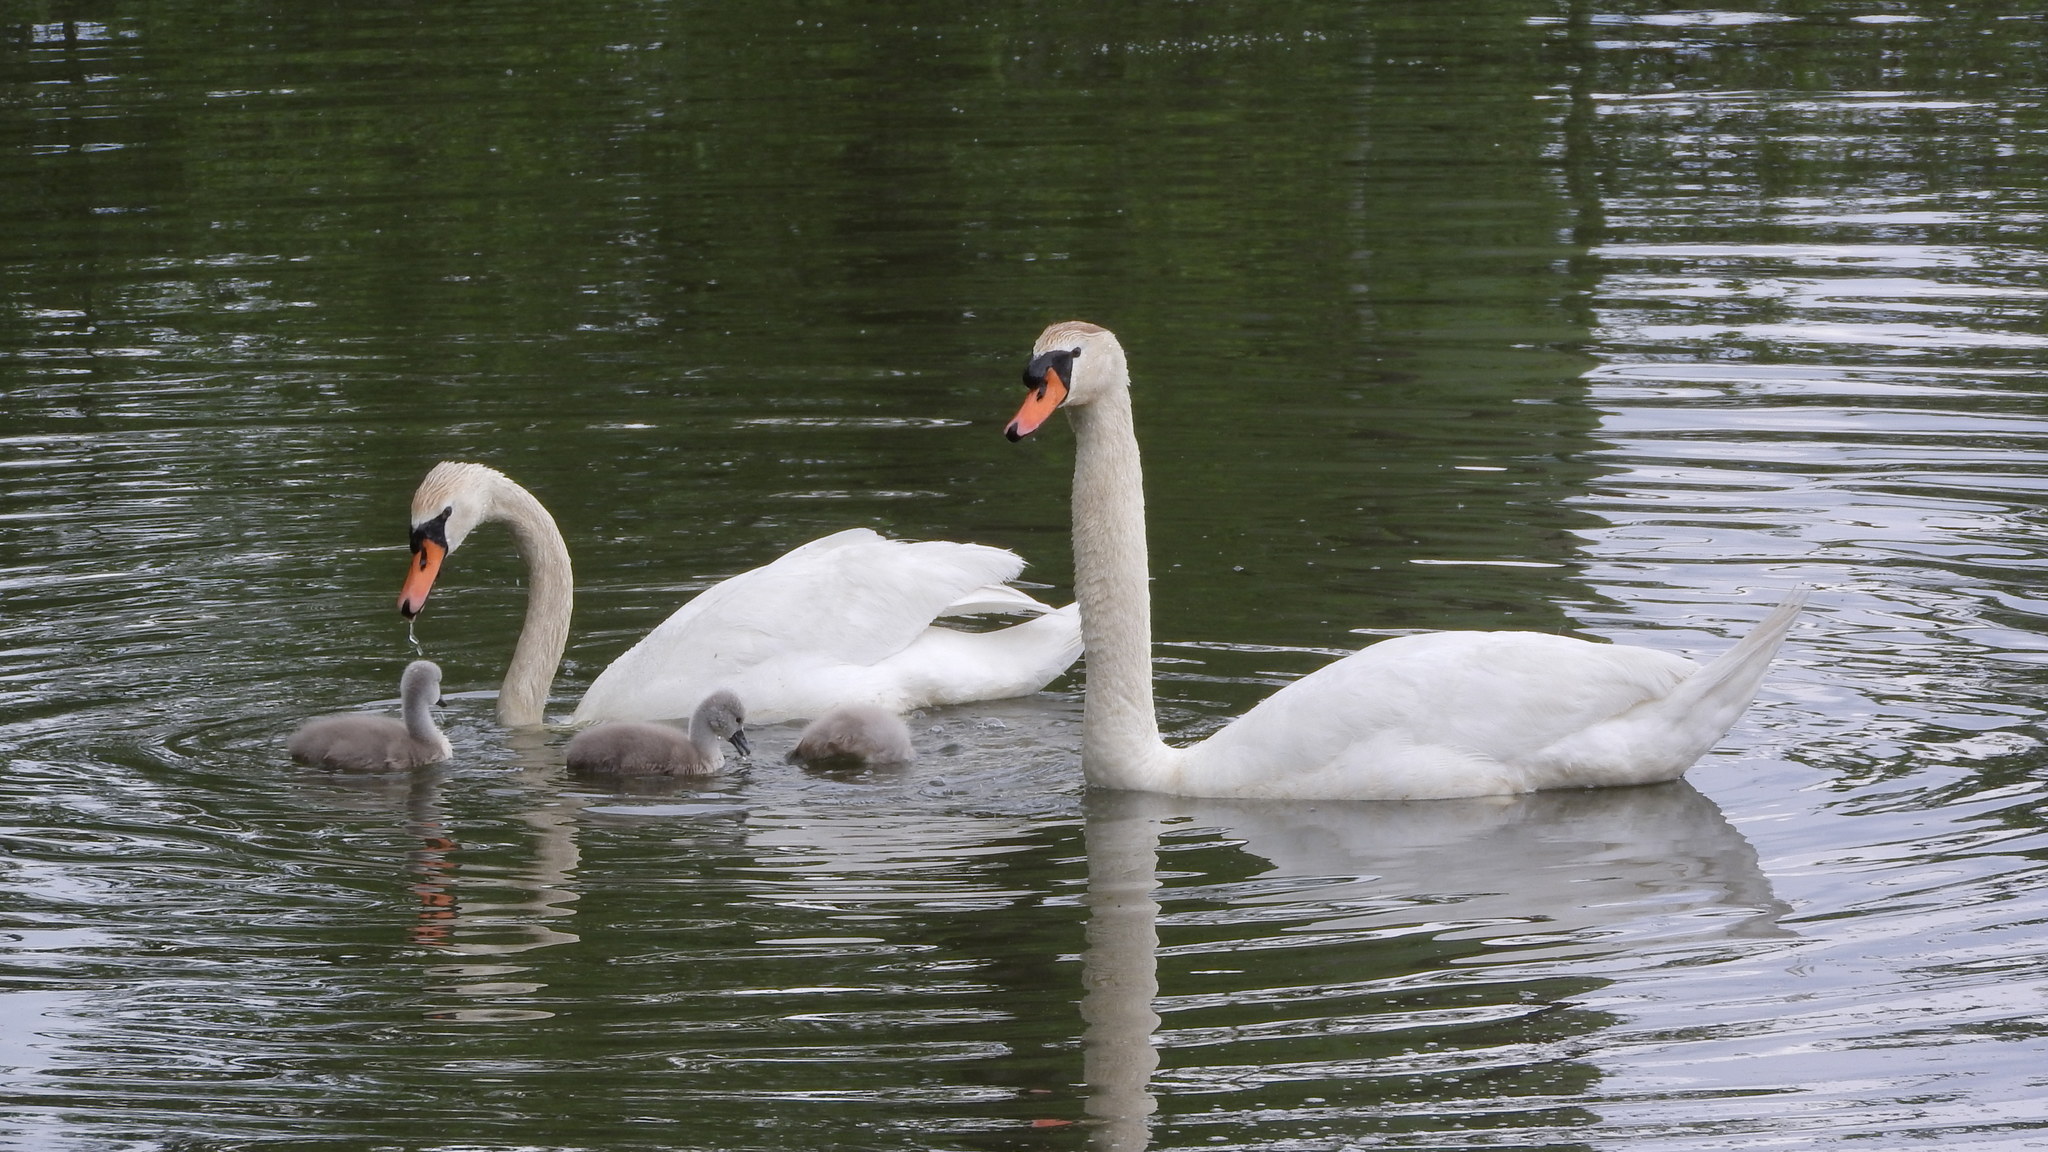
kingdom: Animalia
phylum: Chordata
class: Aves
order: Anseriformes
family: Anatidae
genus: Cygnus
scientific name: Cygnus olor
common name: Mute swan
